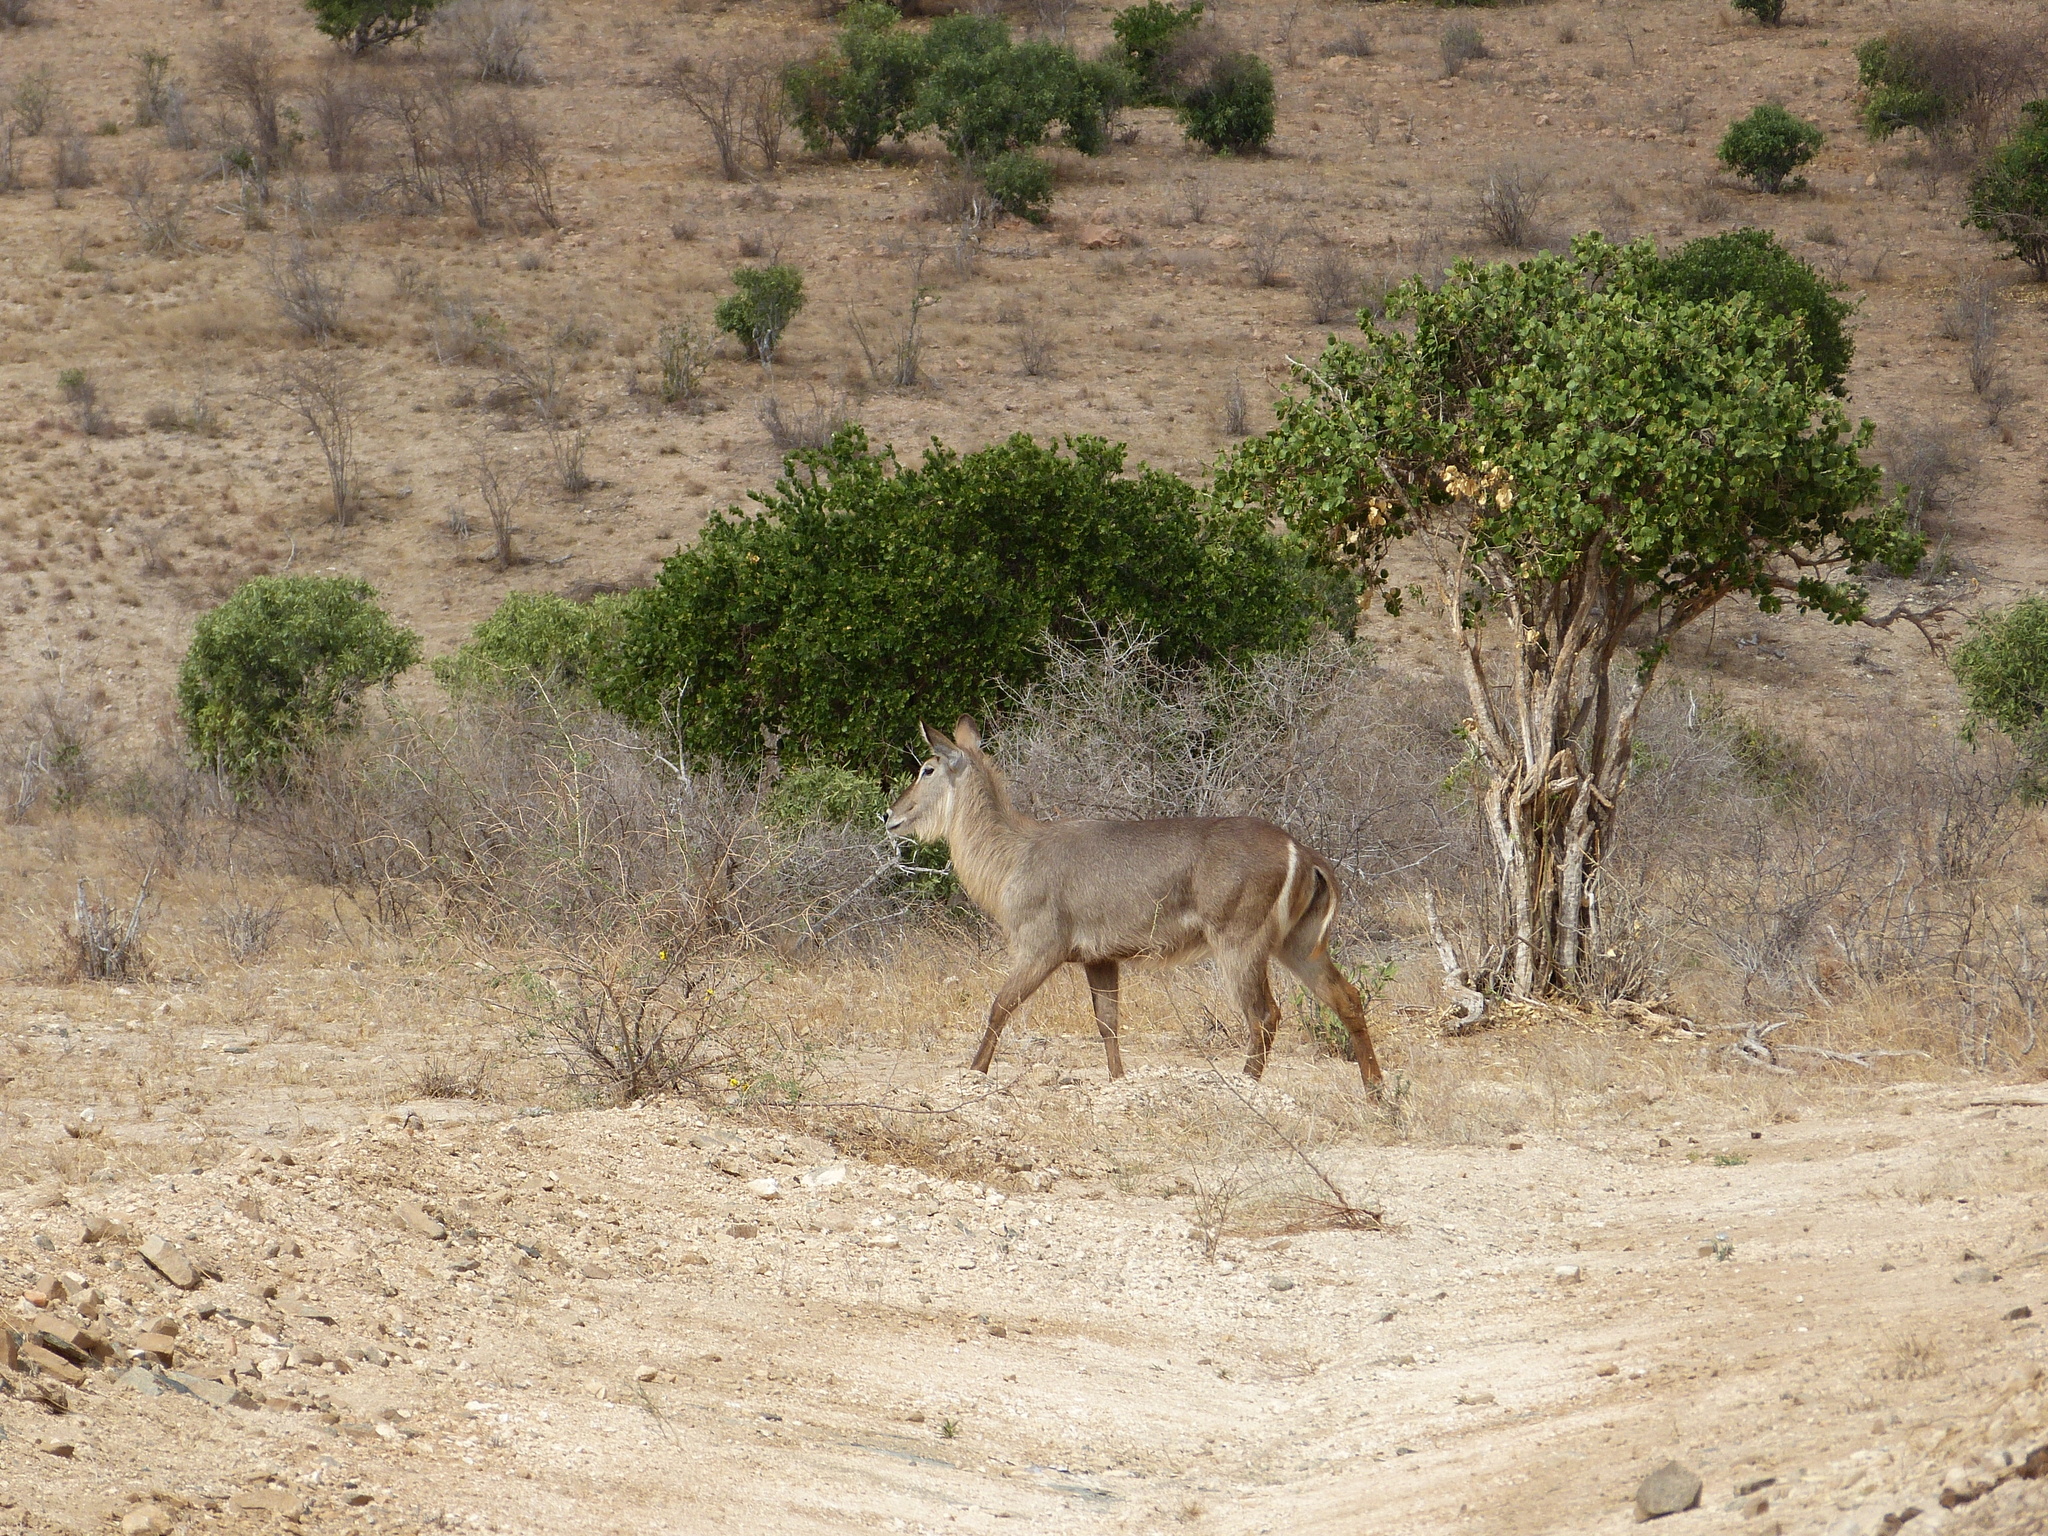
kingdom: Animalia
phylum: Chordata
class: Mammalia
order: Artiodactyla
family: Bovidae
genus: Kobus
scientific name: Kobus ellipsiprymnus
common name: Waterbuck
